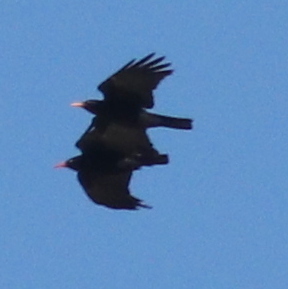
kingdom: Animalia
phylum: Chordata
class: Aves
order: Passeriformes
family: Corvidae
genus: Pyrrhocorax
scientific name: Pyrrhocorax pyrrhocorax
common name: Red-billed chough
